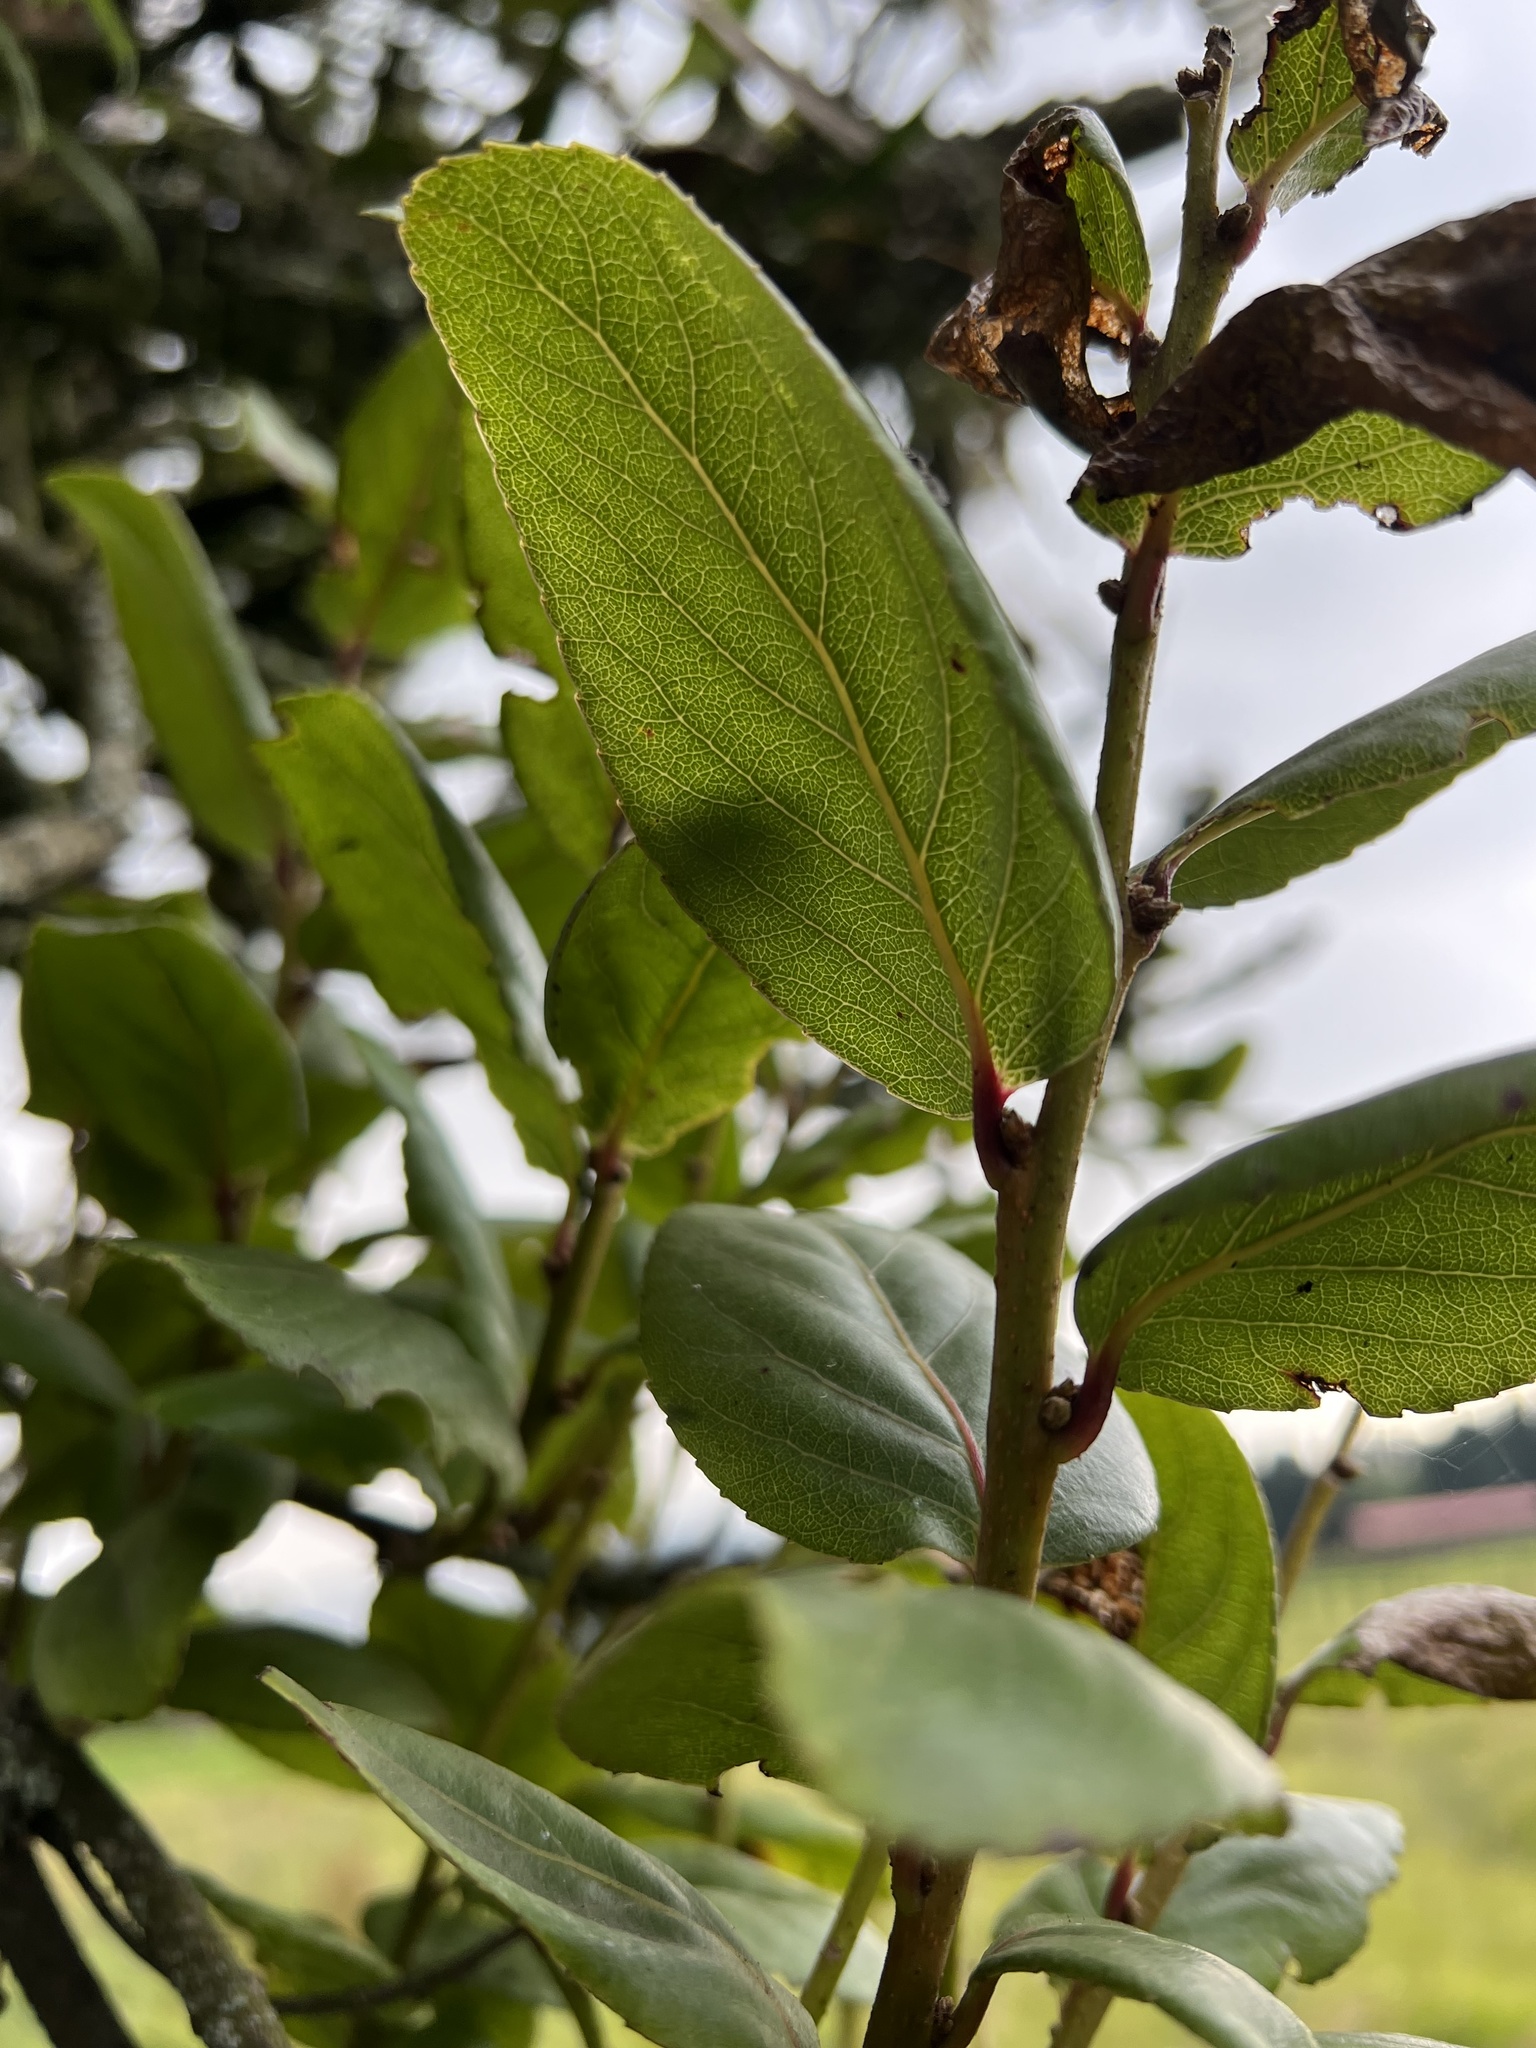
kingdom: Plantae
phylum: Tracheophyta
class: Magnoliopsida
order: Malpighiales
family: Salicaceae
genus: Xylosma
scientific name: Xylosma spiculifera
